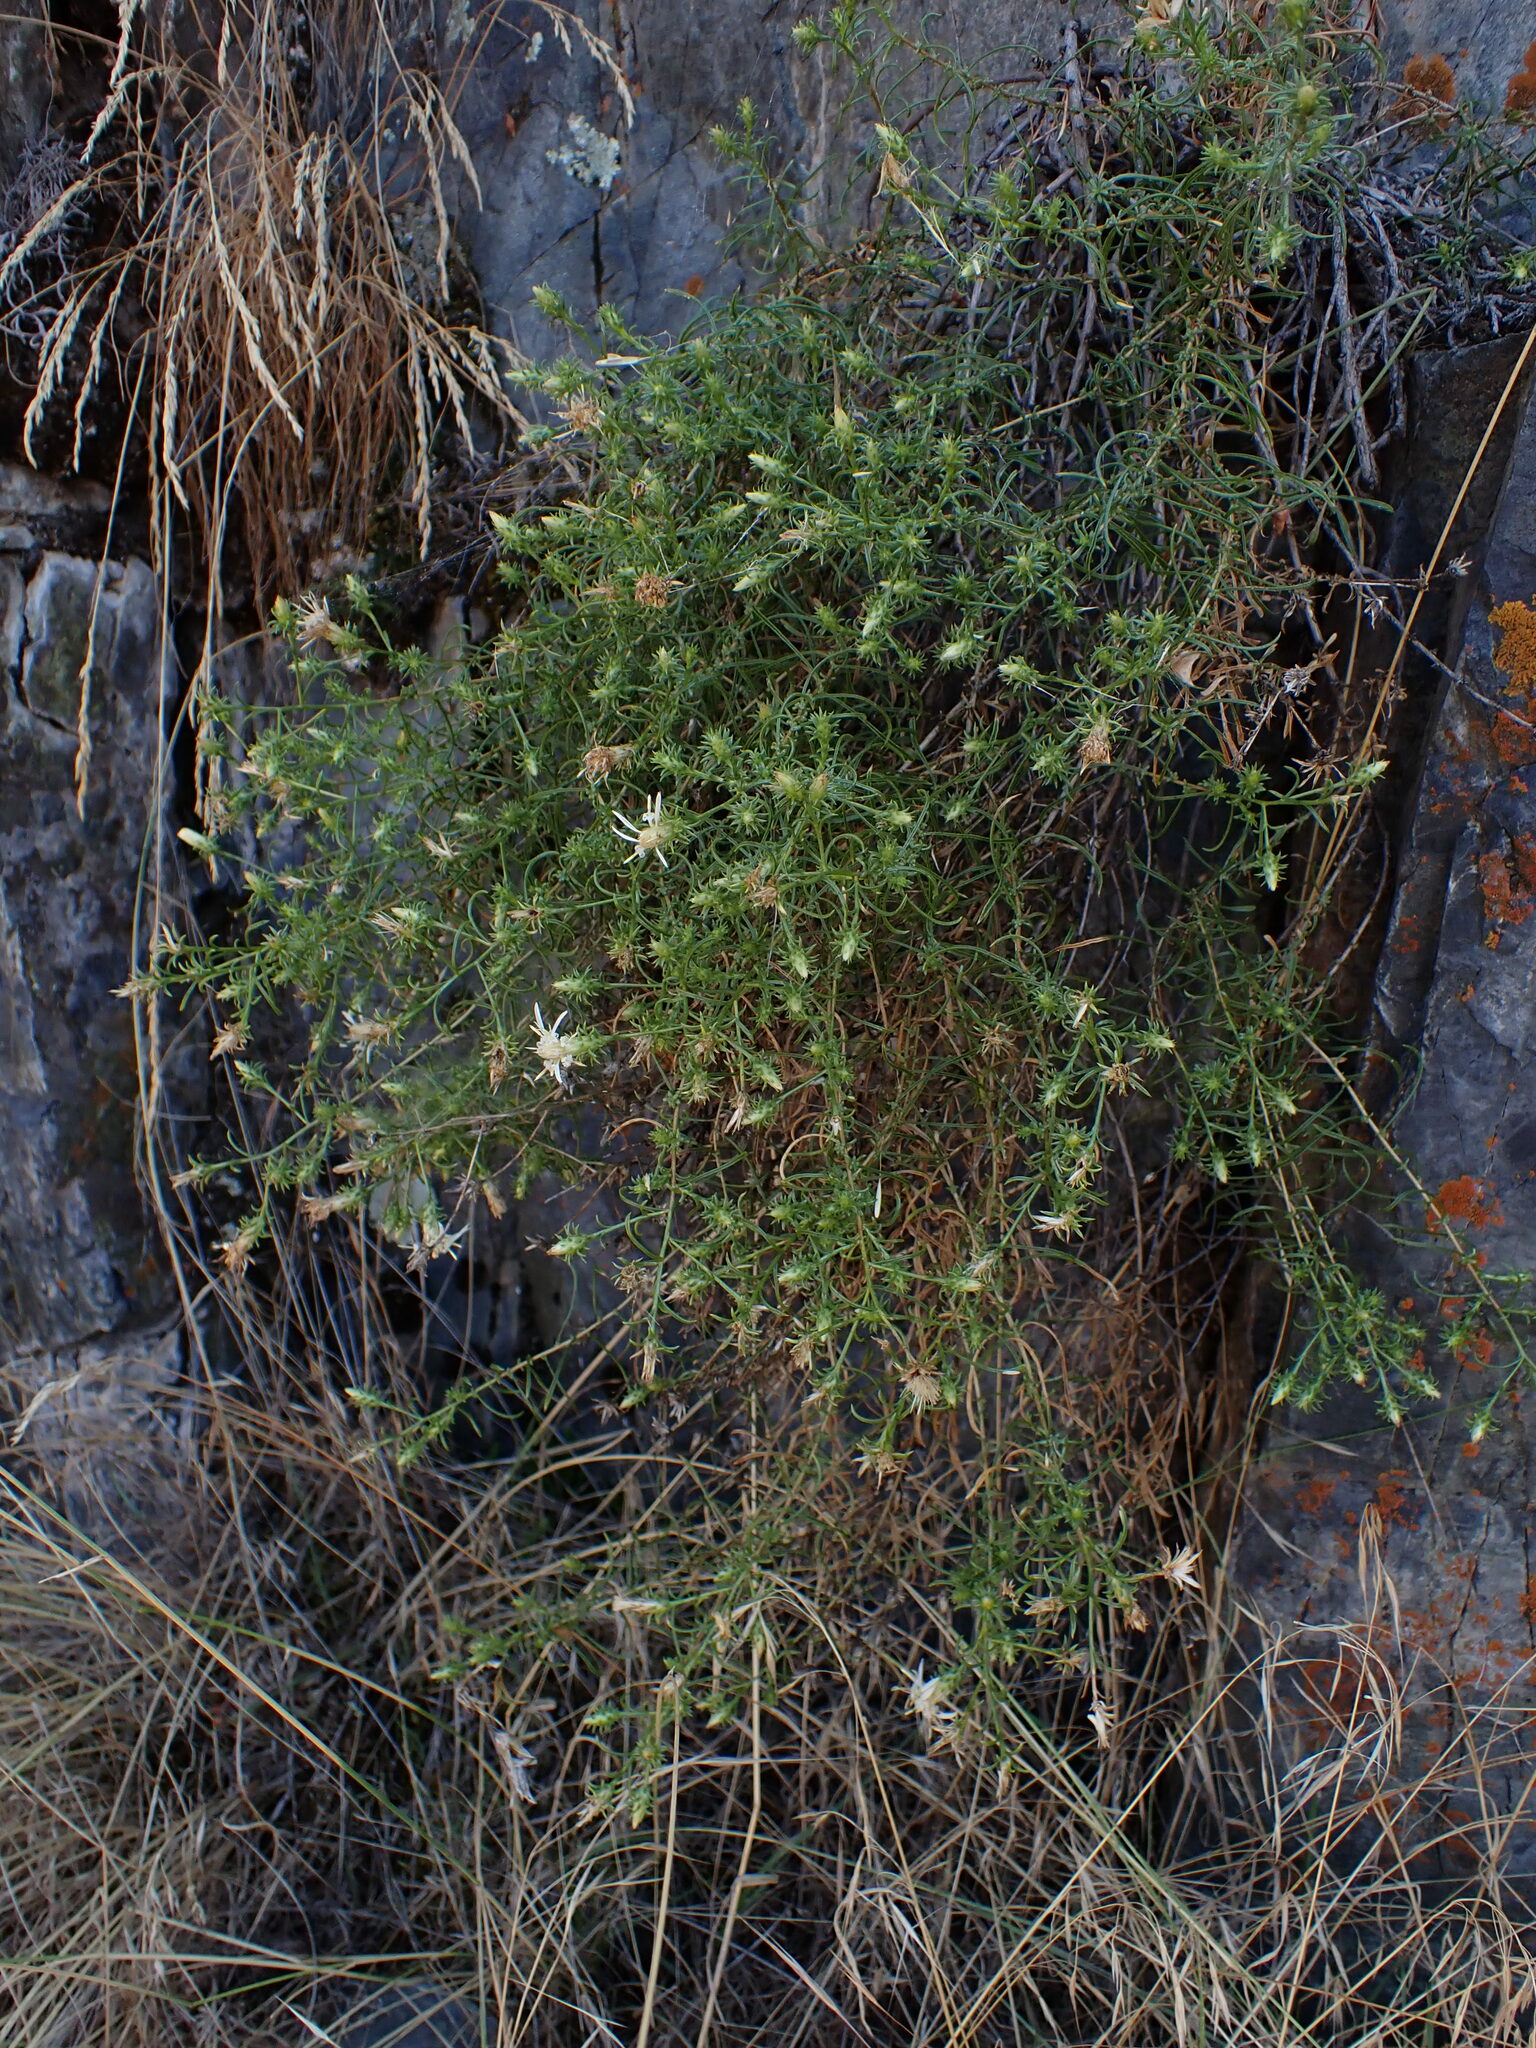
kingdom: Plantae
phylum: Tracheophyta
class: Magnoliopsida
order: Asterales
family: Asteraceae
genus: Ericameria
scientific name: Ericameria resinosa
